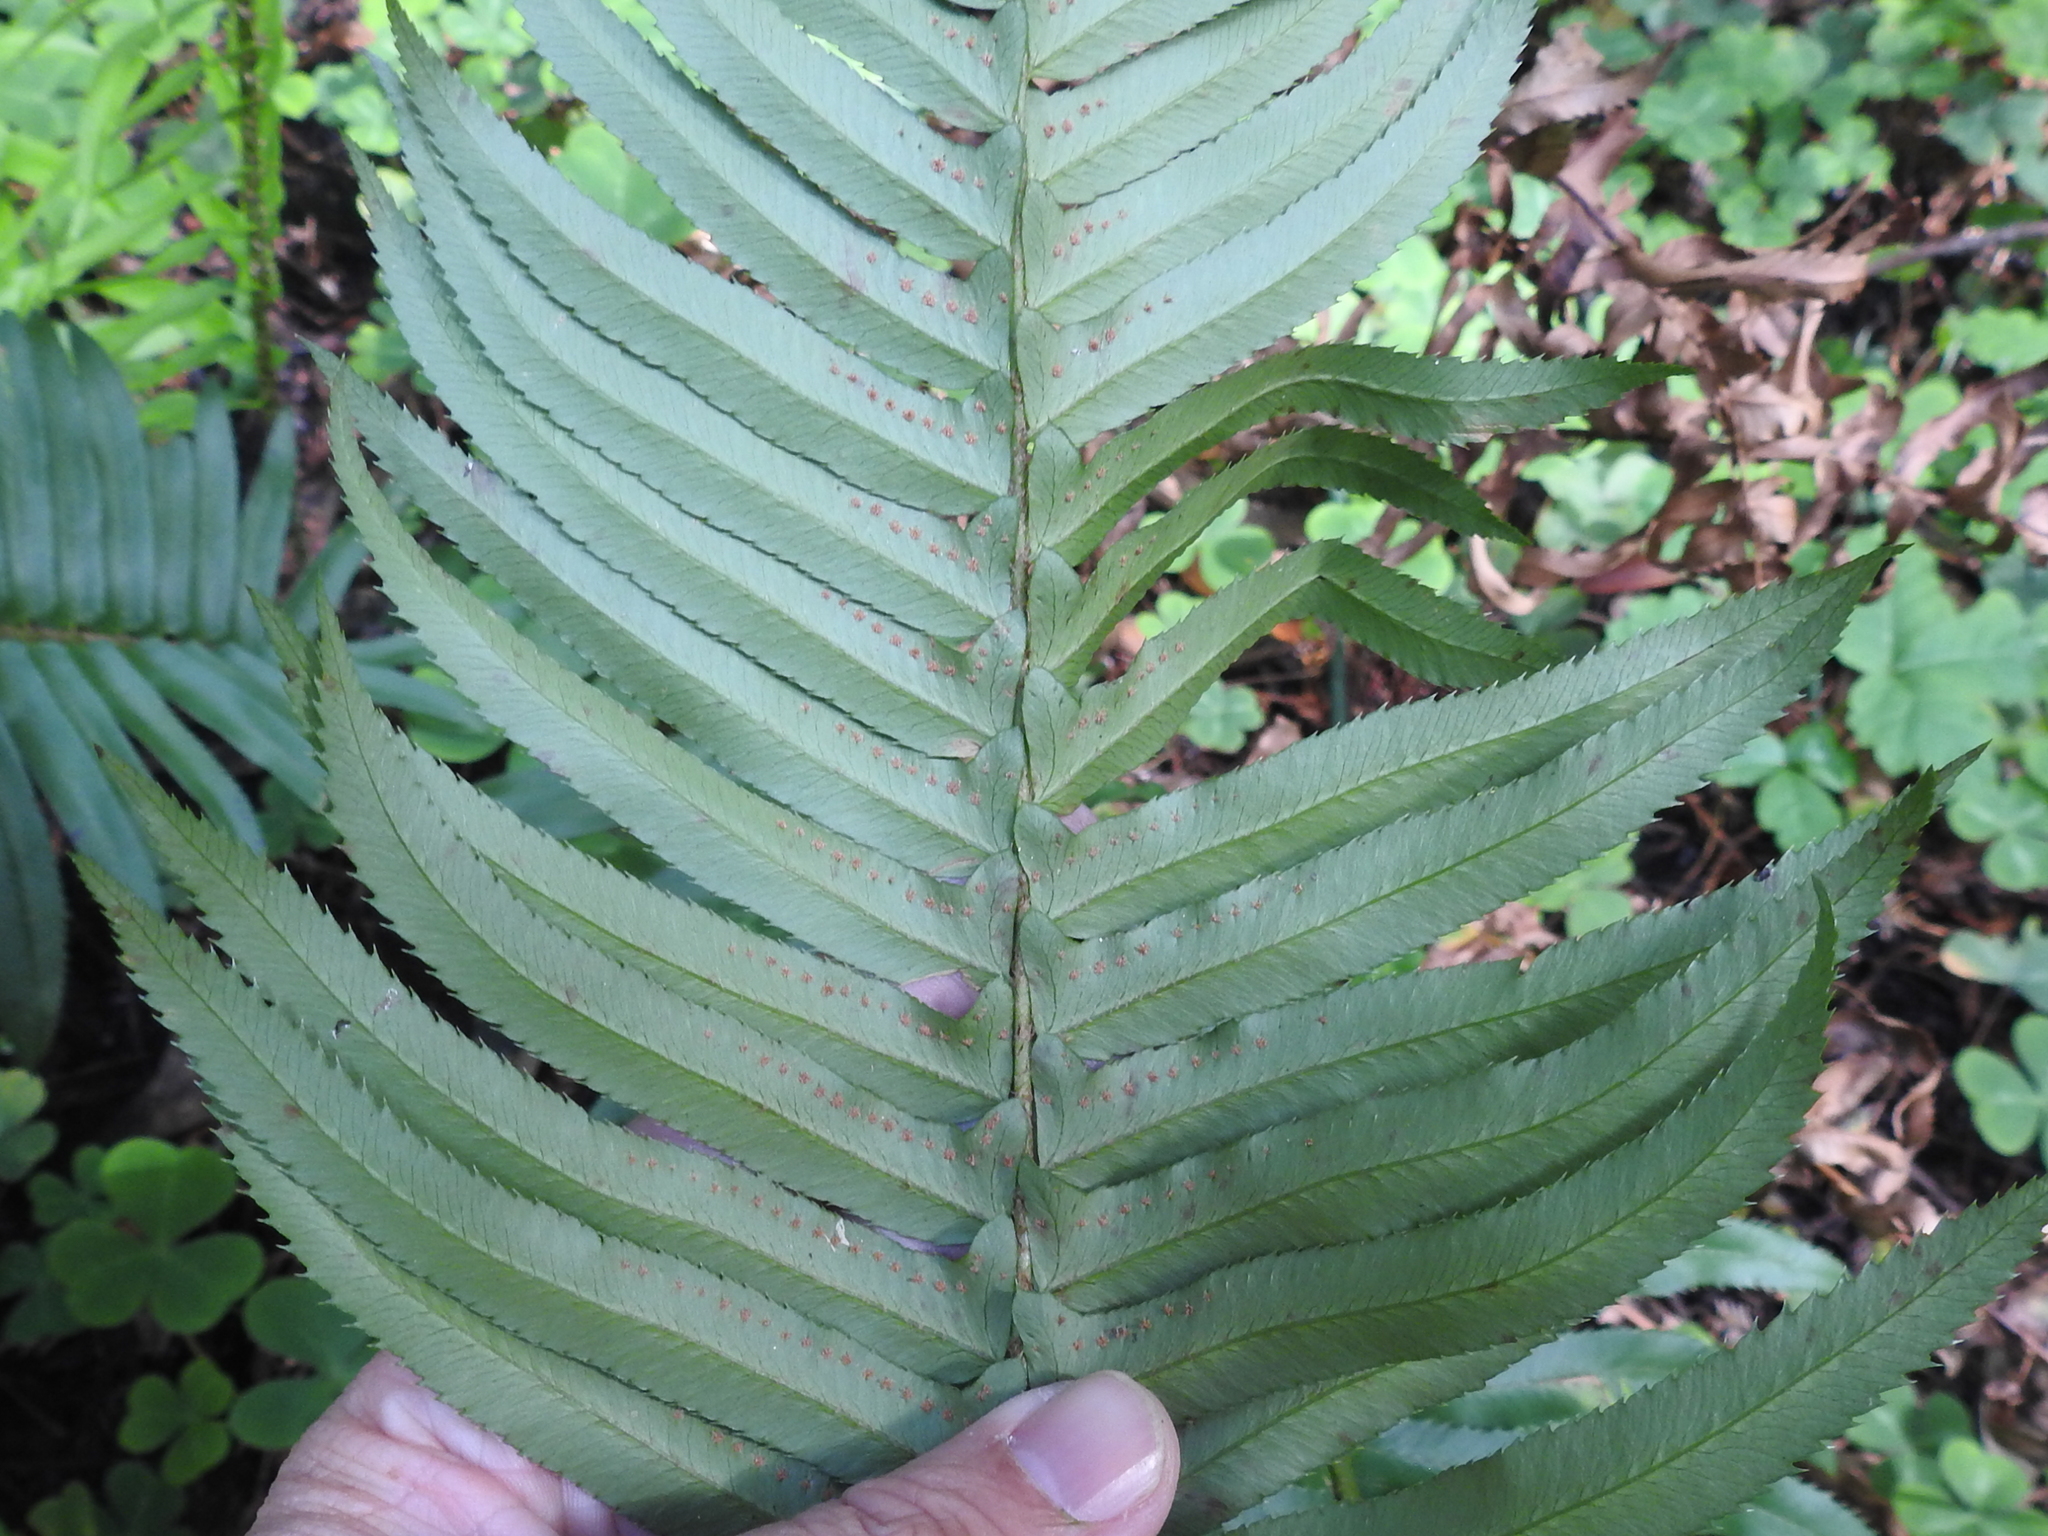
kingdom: Plantae
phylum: Tracheophyta
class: Polypodiopsida
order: Polypodiales
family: Dryopteridaceae
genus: Polystichum
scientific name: Polystichum munitum
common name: Western sword-fern
